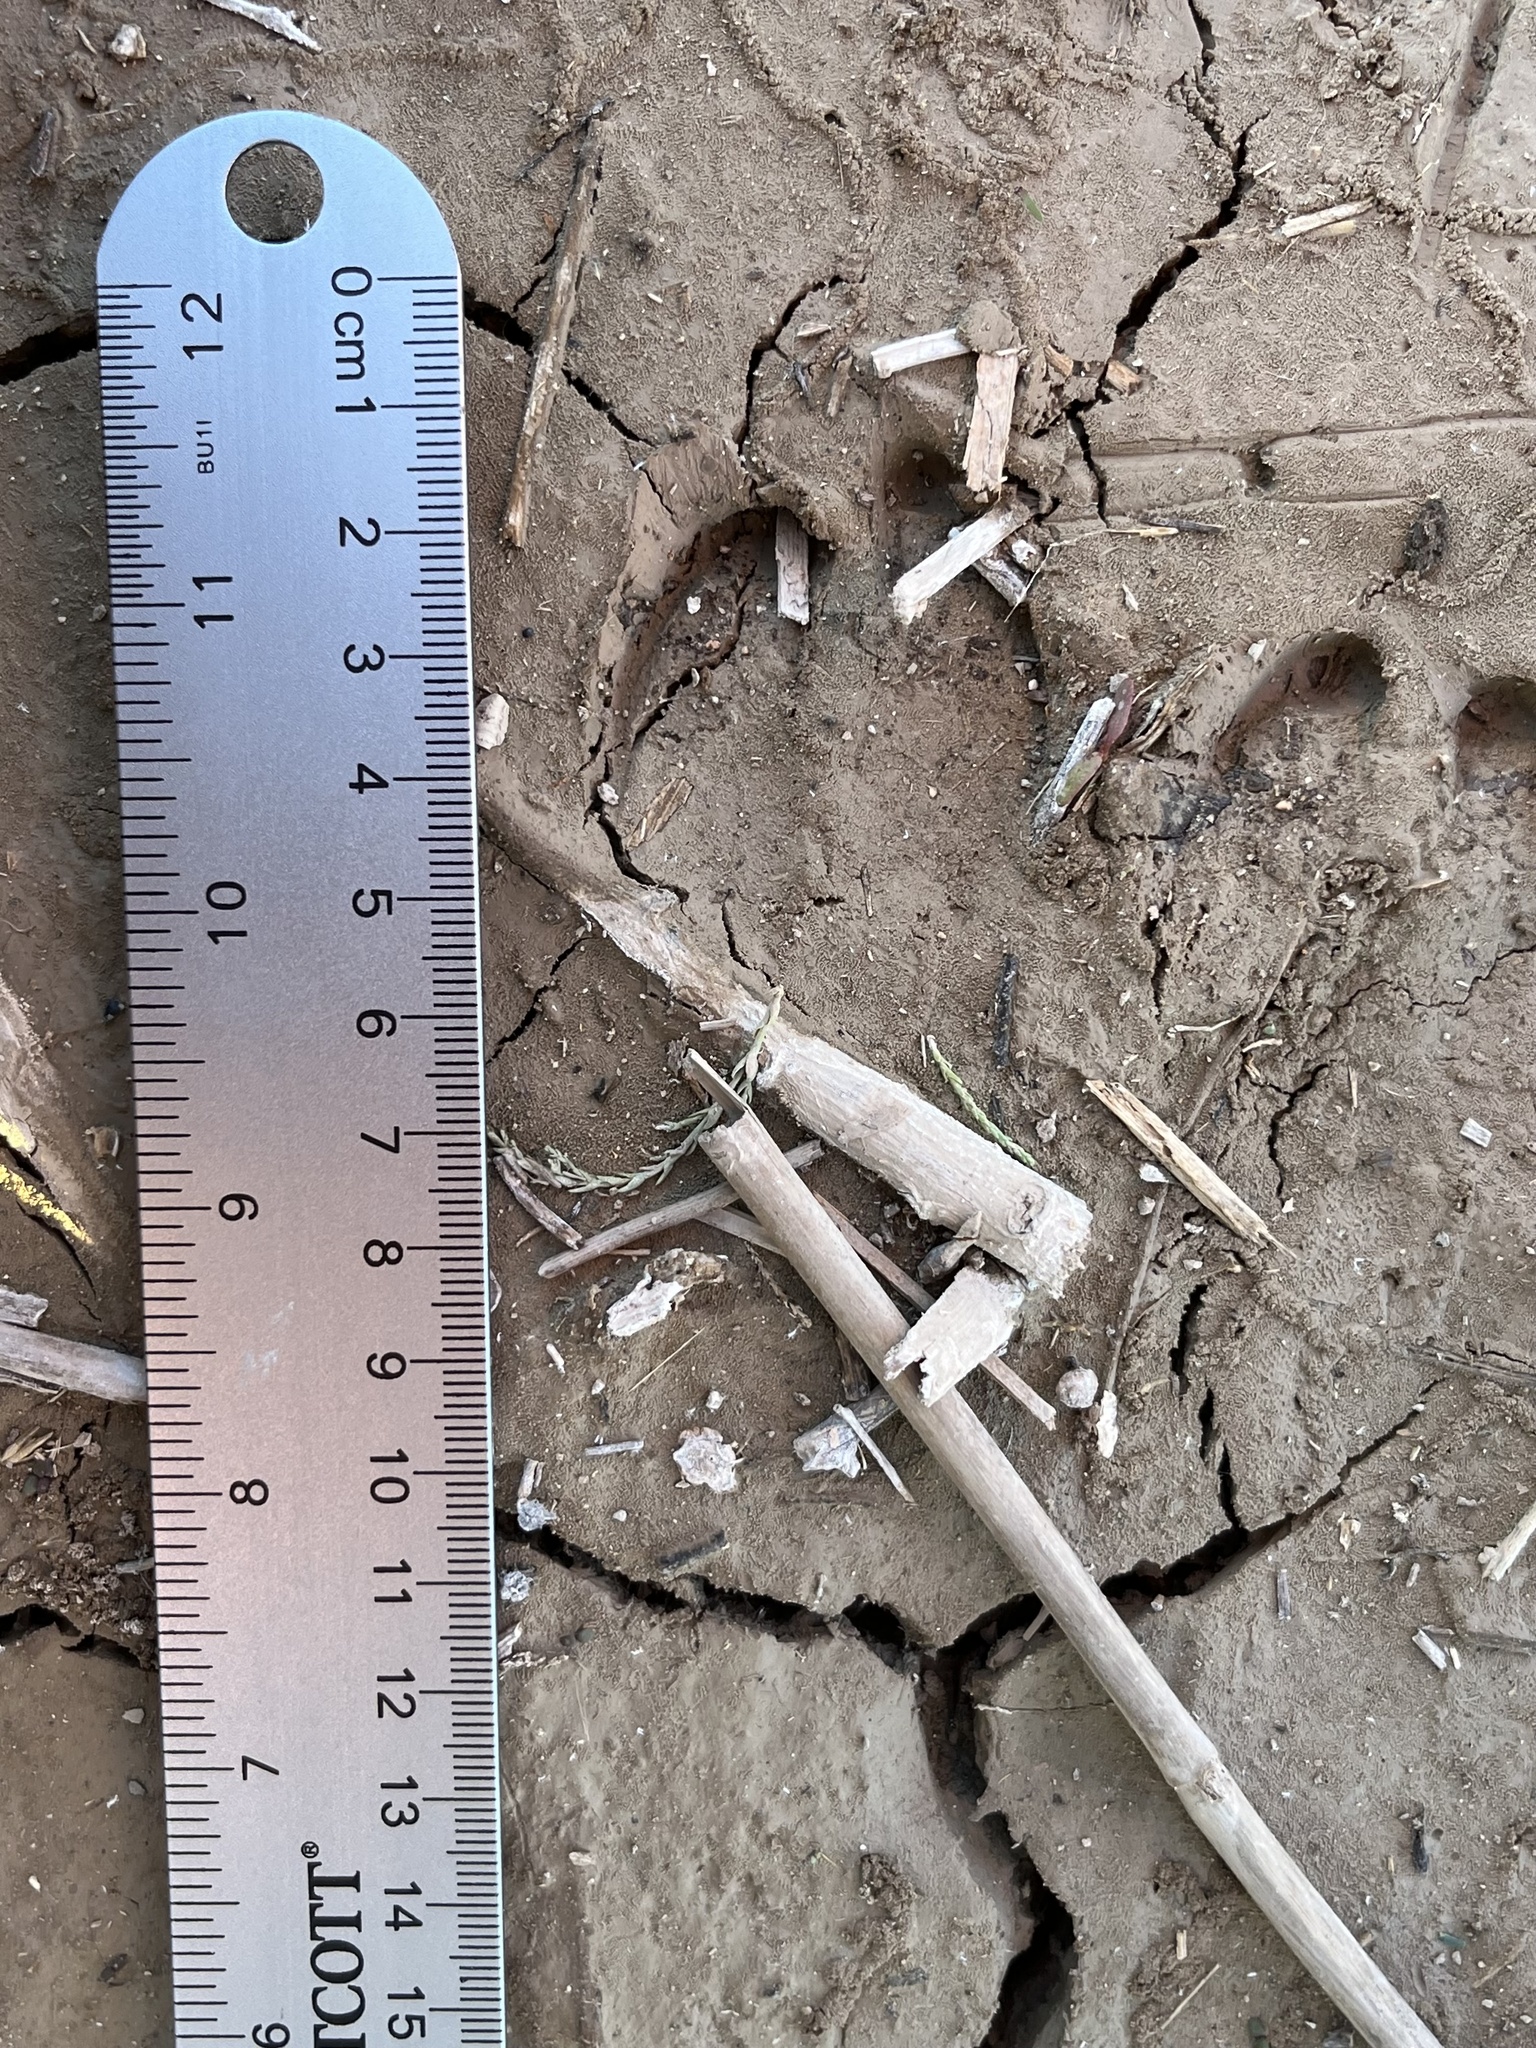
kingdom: Animalia
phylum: Chordata
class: Mammalia
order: Artiodactyla
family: Tayassuidae
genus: Pecari
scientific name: Pecari tajacu
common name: Collared peccary
